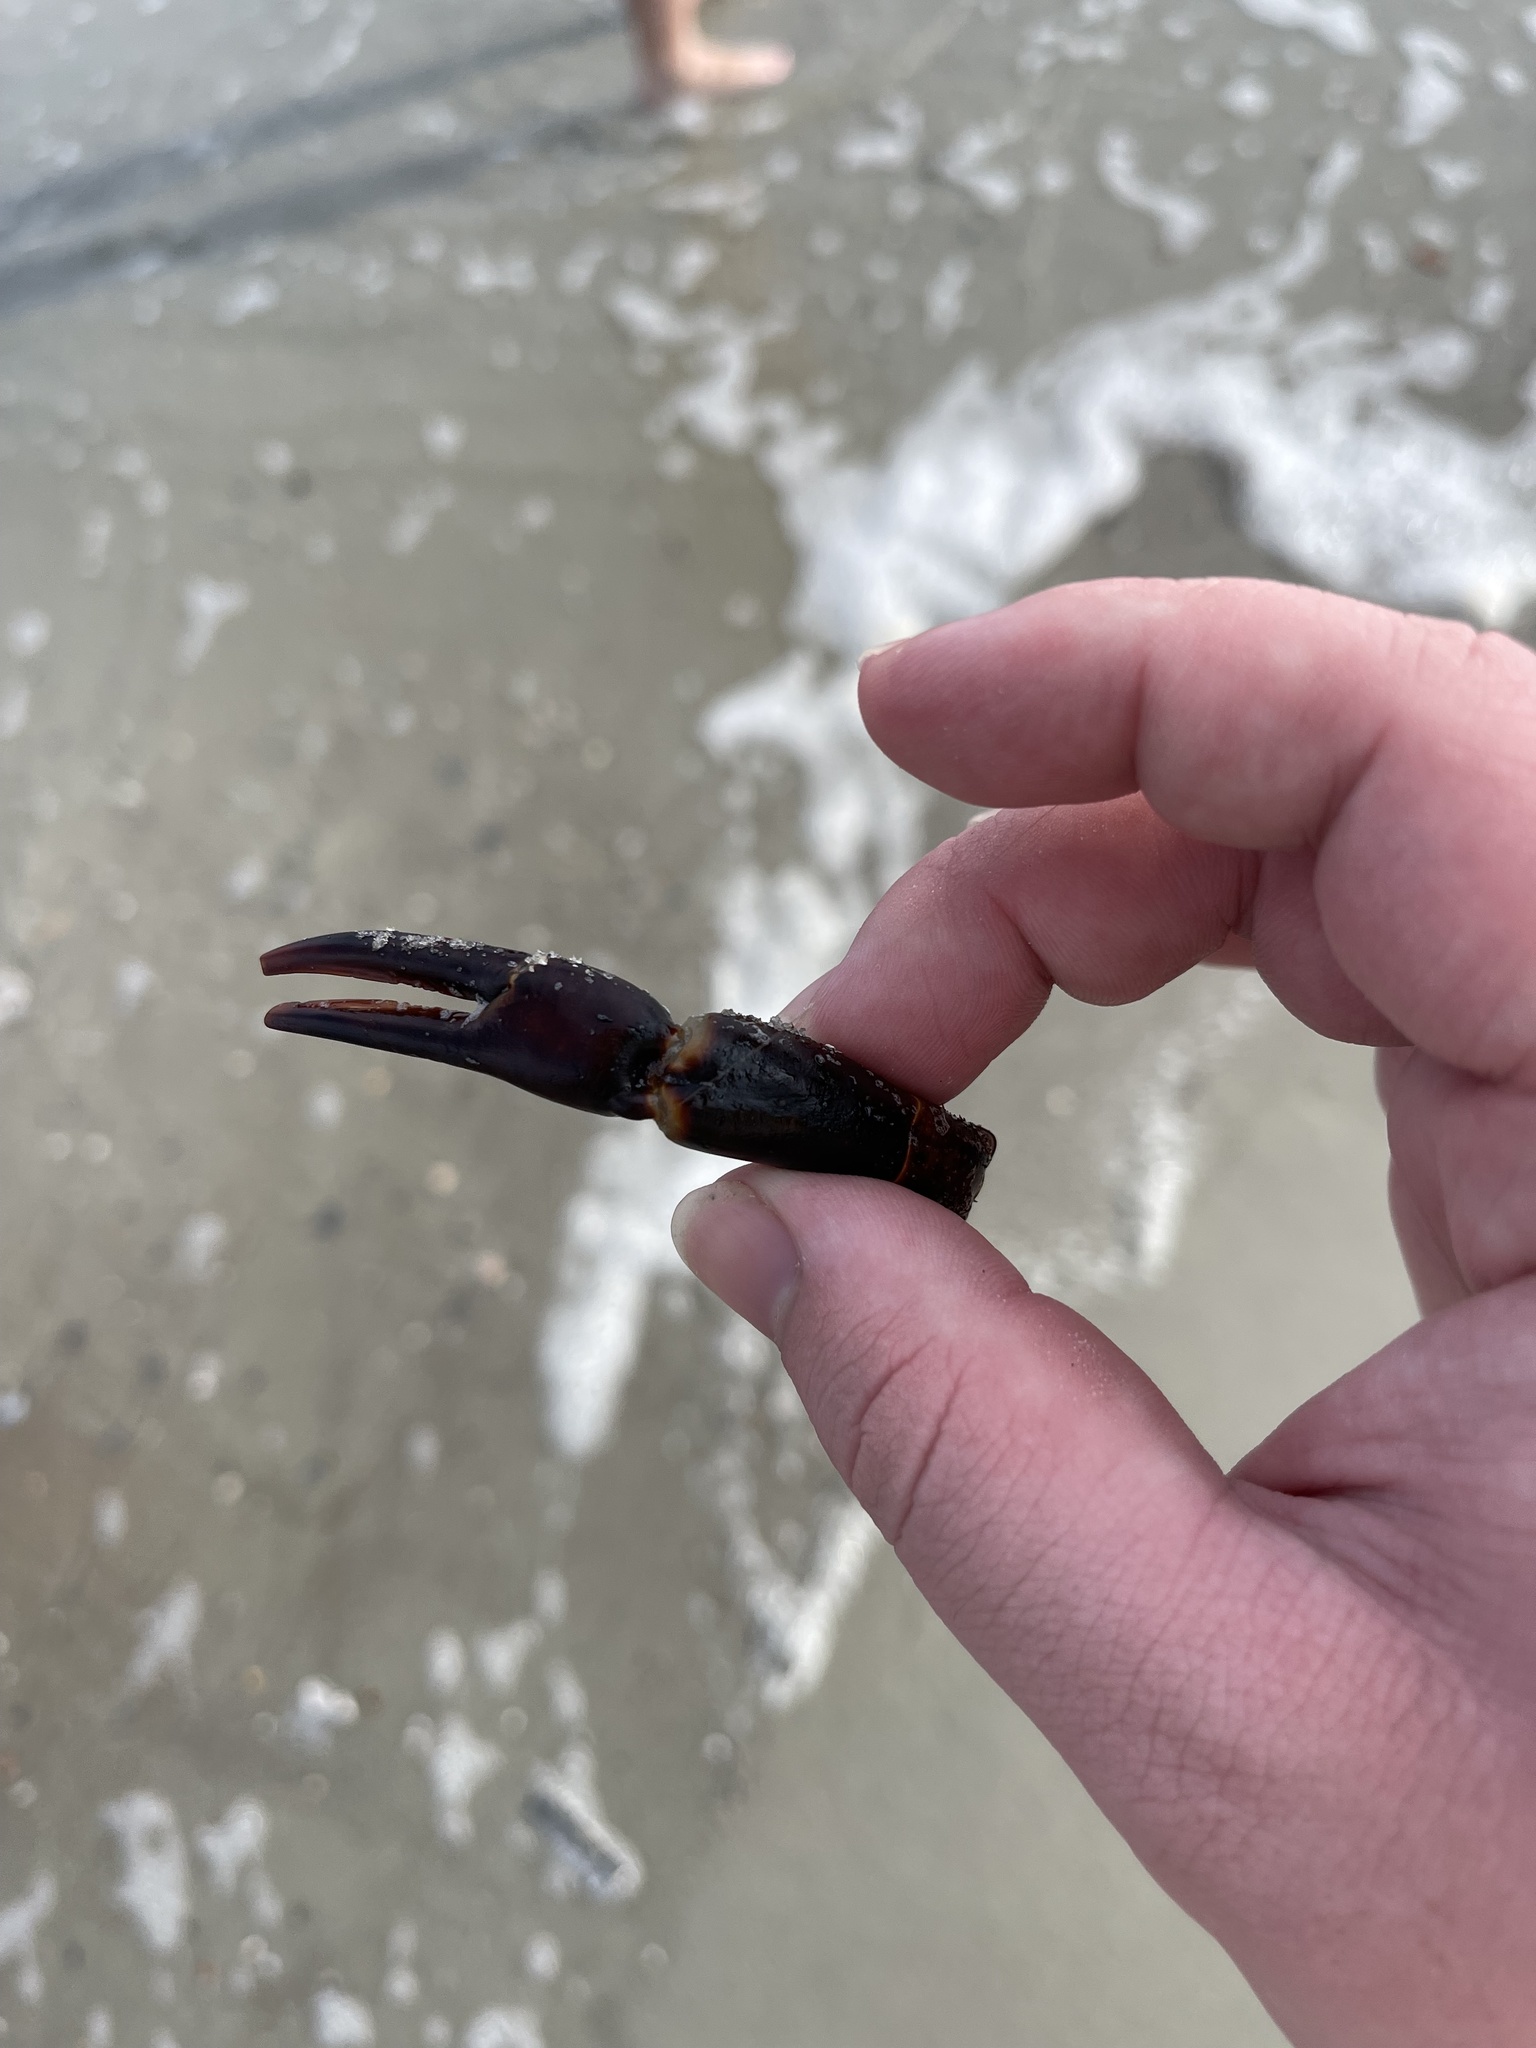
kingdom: Animalia
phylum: Arthropoda
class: Merostomata
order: Xiphosurida
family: Limulidae
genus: Limulus
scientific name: Limulus polyphemus
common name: Horseshoe crab
